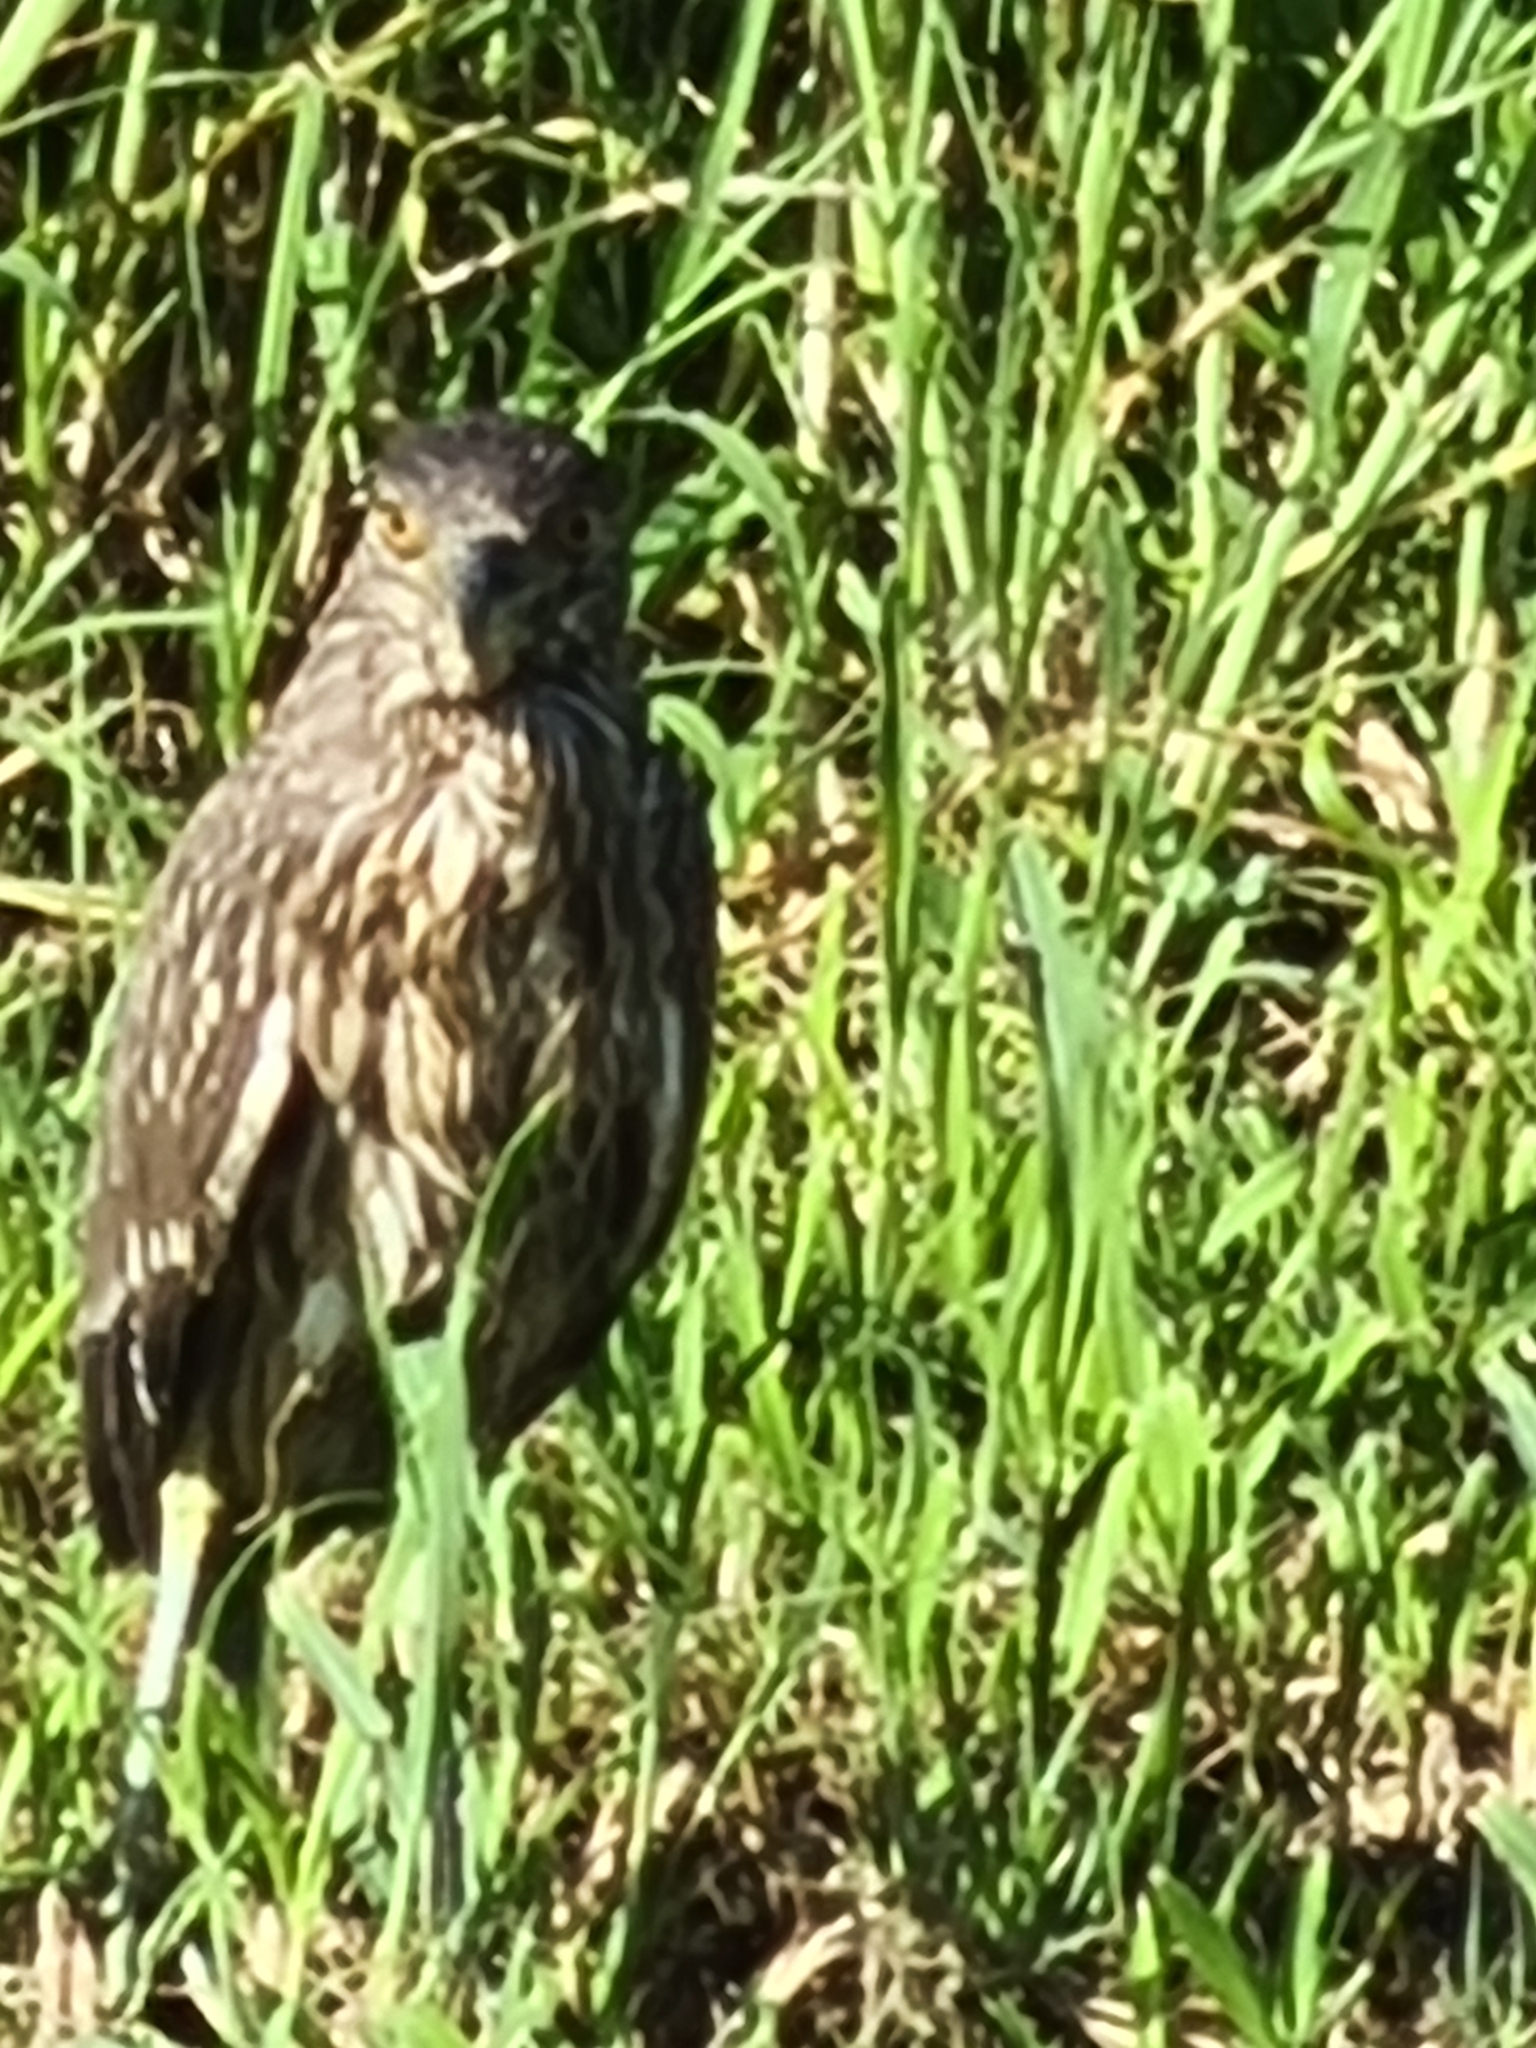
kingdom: Animalia
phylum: Chordata
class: Aves
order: Pelecaniformes
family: Ardeidae
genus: Nycticorax
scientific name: Nycticorax nycticorax
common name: Black-crowned night heron
